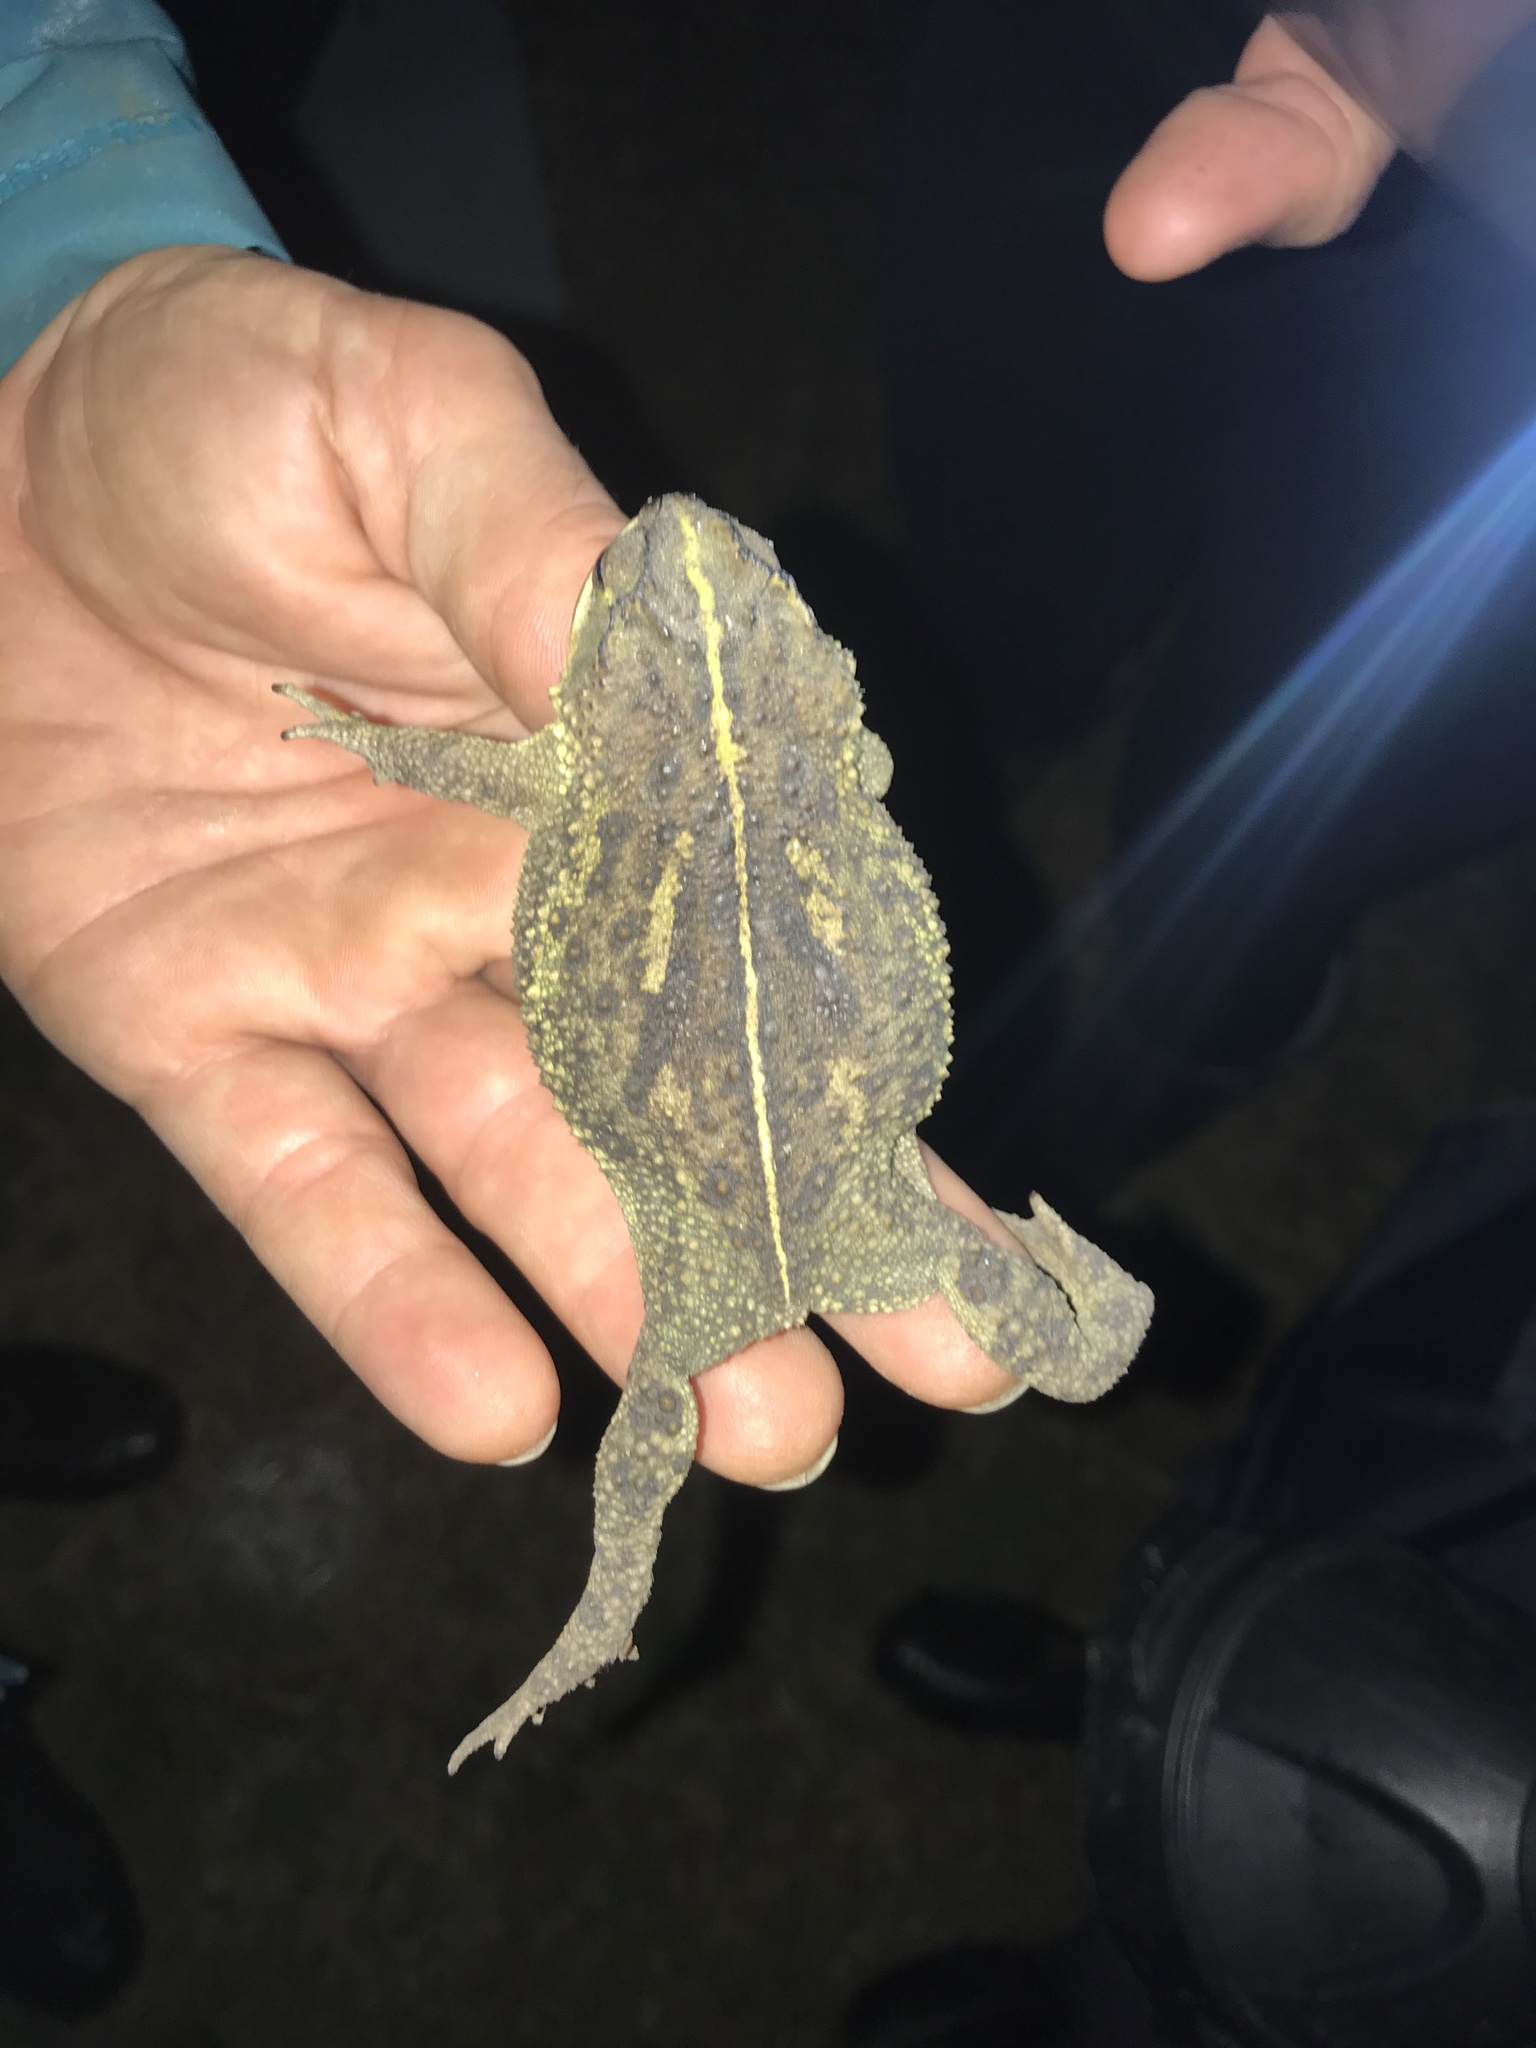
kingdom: Animalia
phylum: Chordata
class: Amphibia
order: Anura
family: Bufonidae
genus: Rhinella
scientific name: Rhinella dorbignyi
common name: D´orbigny’s toad
